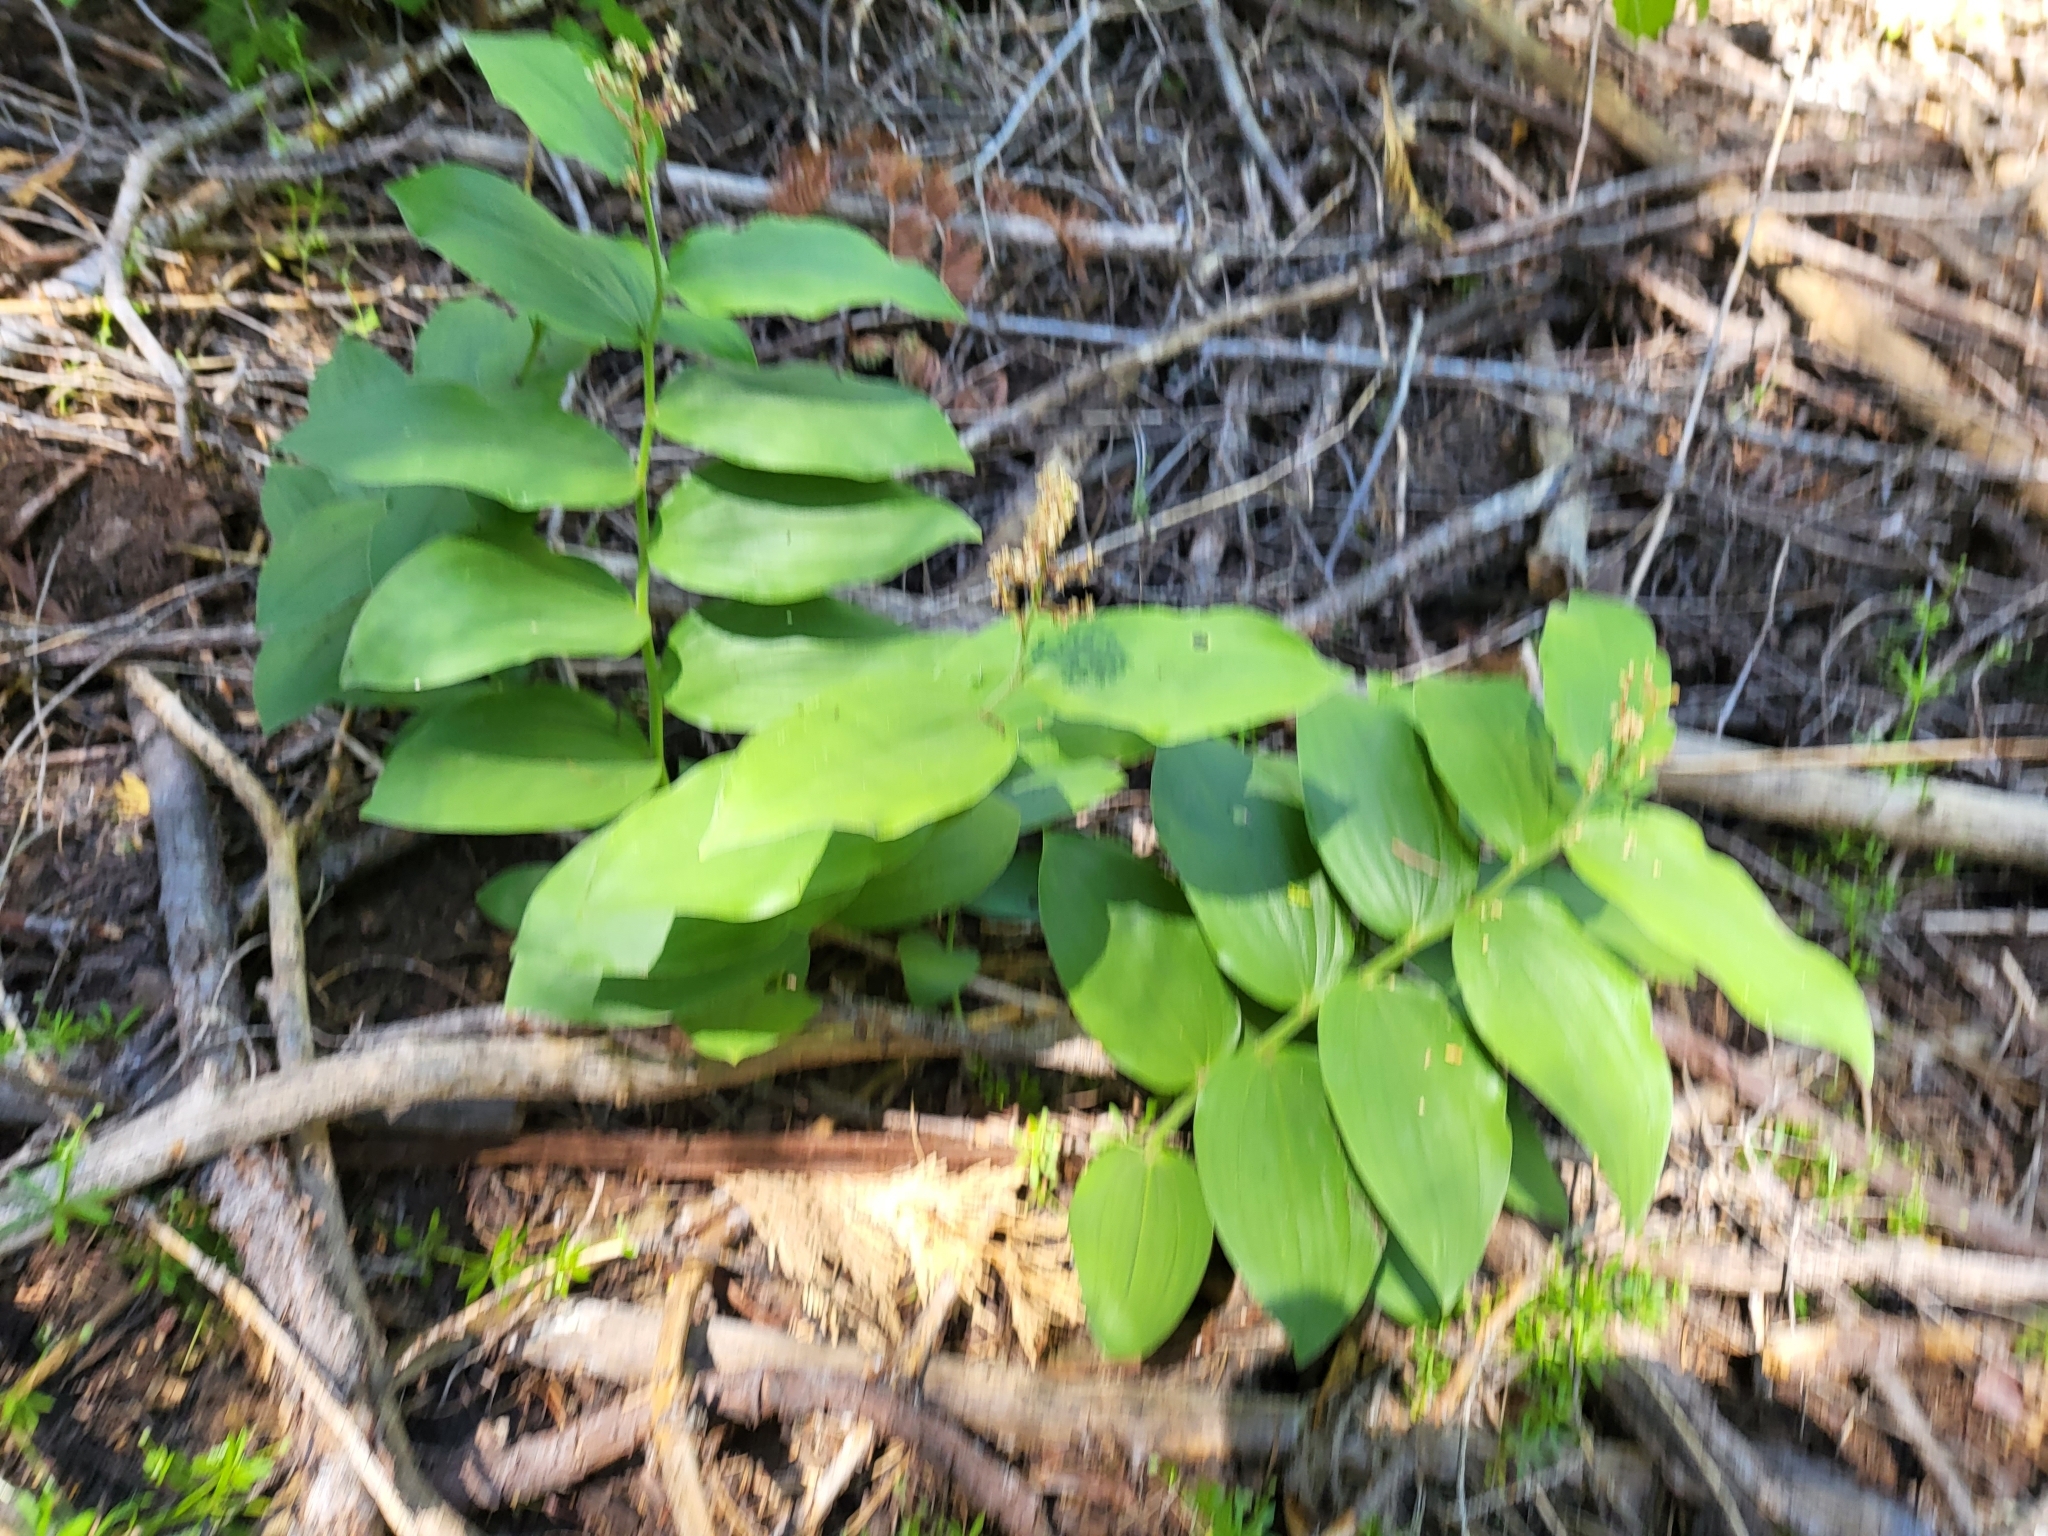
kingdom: Plantae
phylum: Tracheophyta
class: Liliopsida
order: Asparagales
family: Asparagaceae
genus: Maianthemum
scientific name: Maianthemum racemosum
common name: False spikenard
